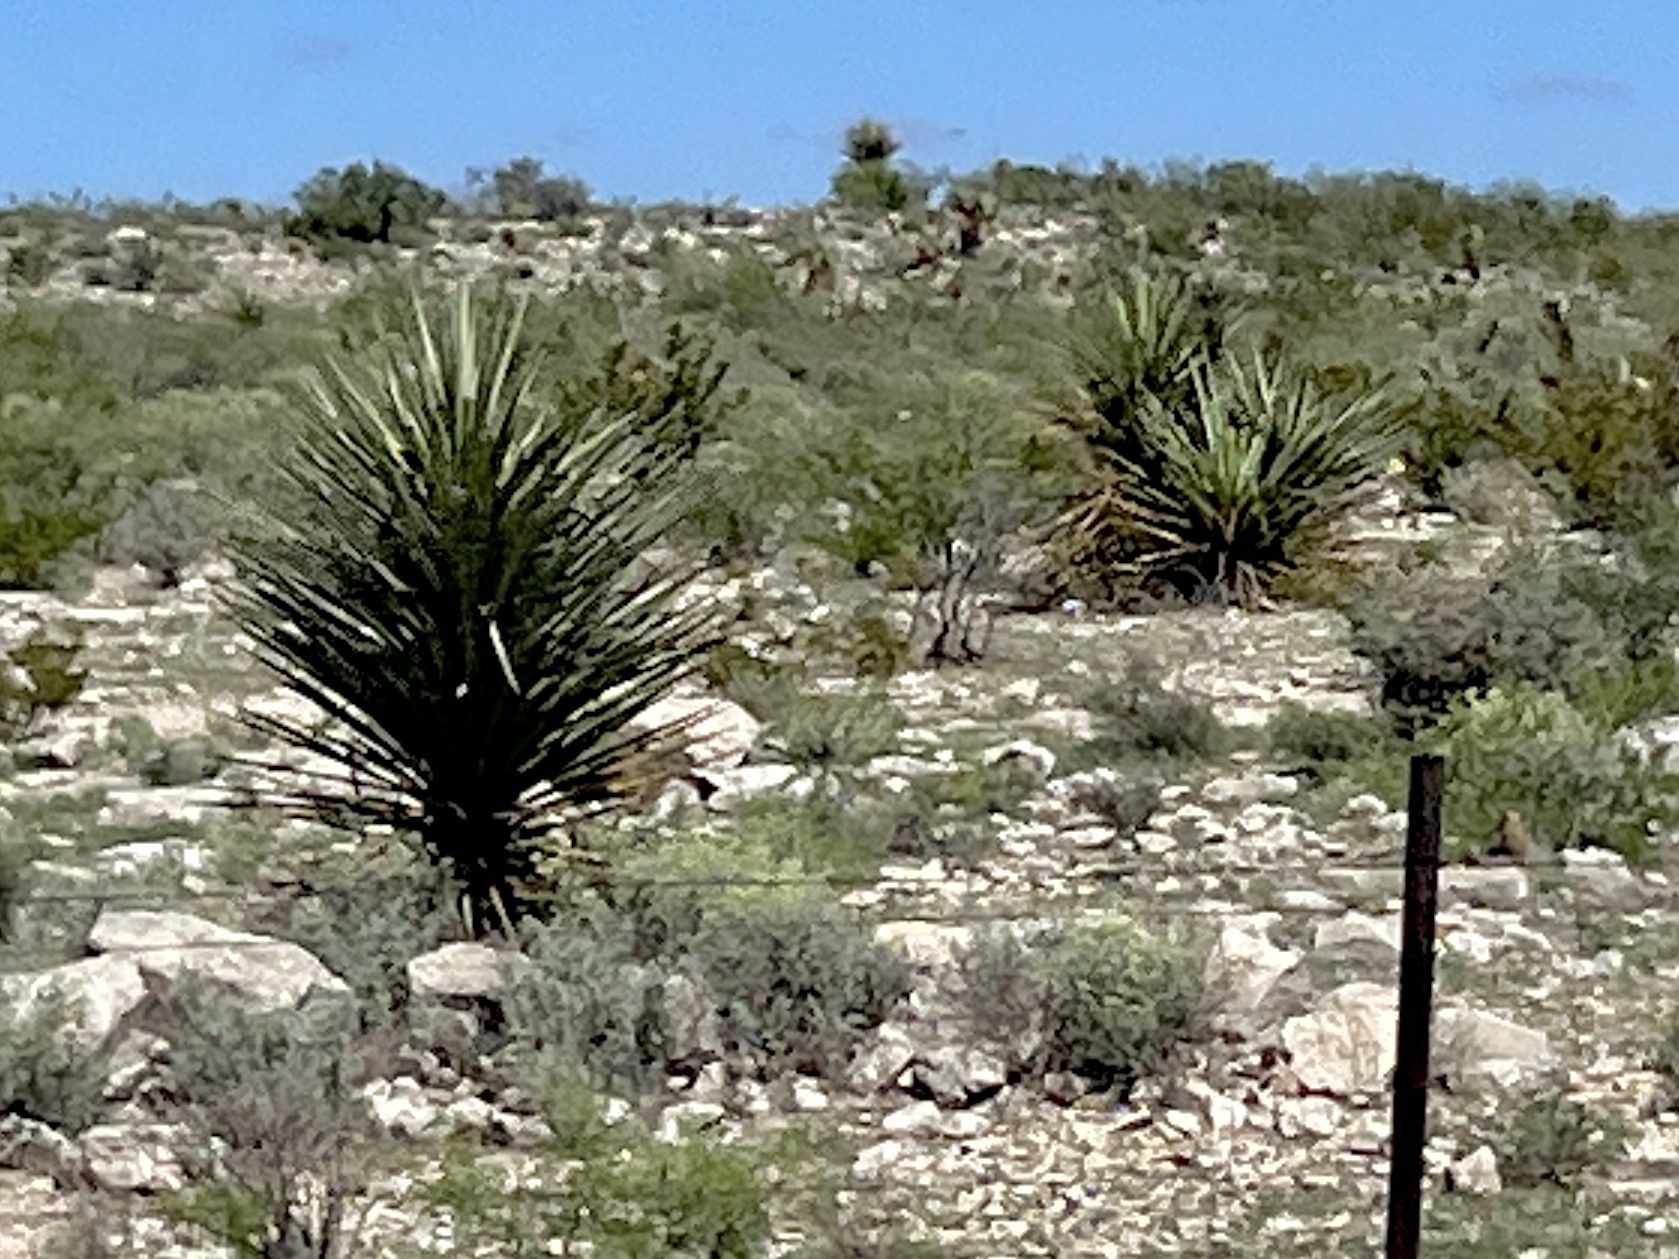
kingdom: Plantae
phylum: Tracheophyta
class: Liliopsida
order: Asparagales
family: Asparagaceae
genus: Yucca
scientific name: Yucca treculiana
